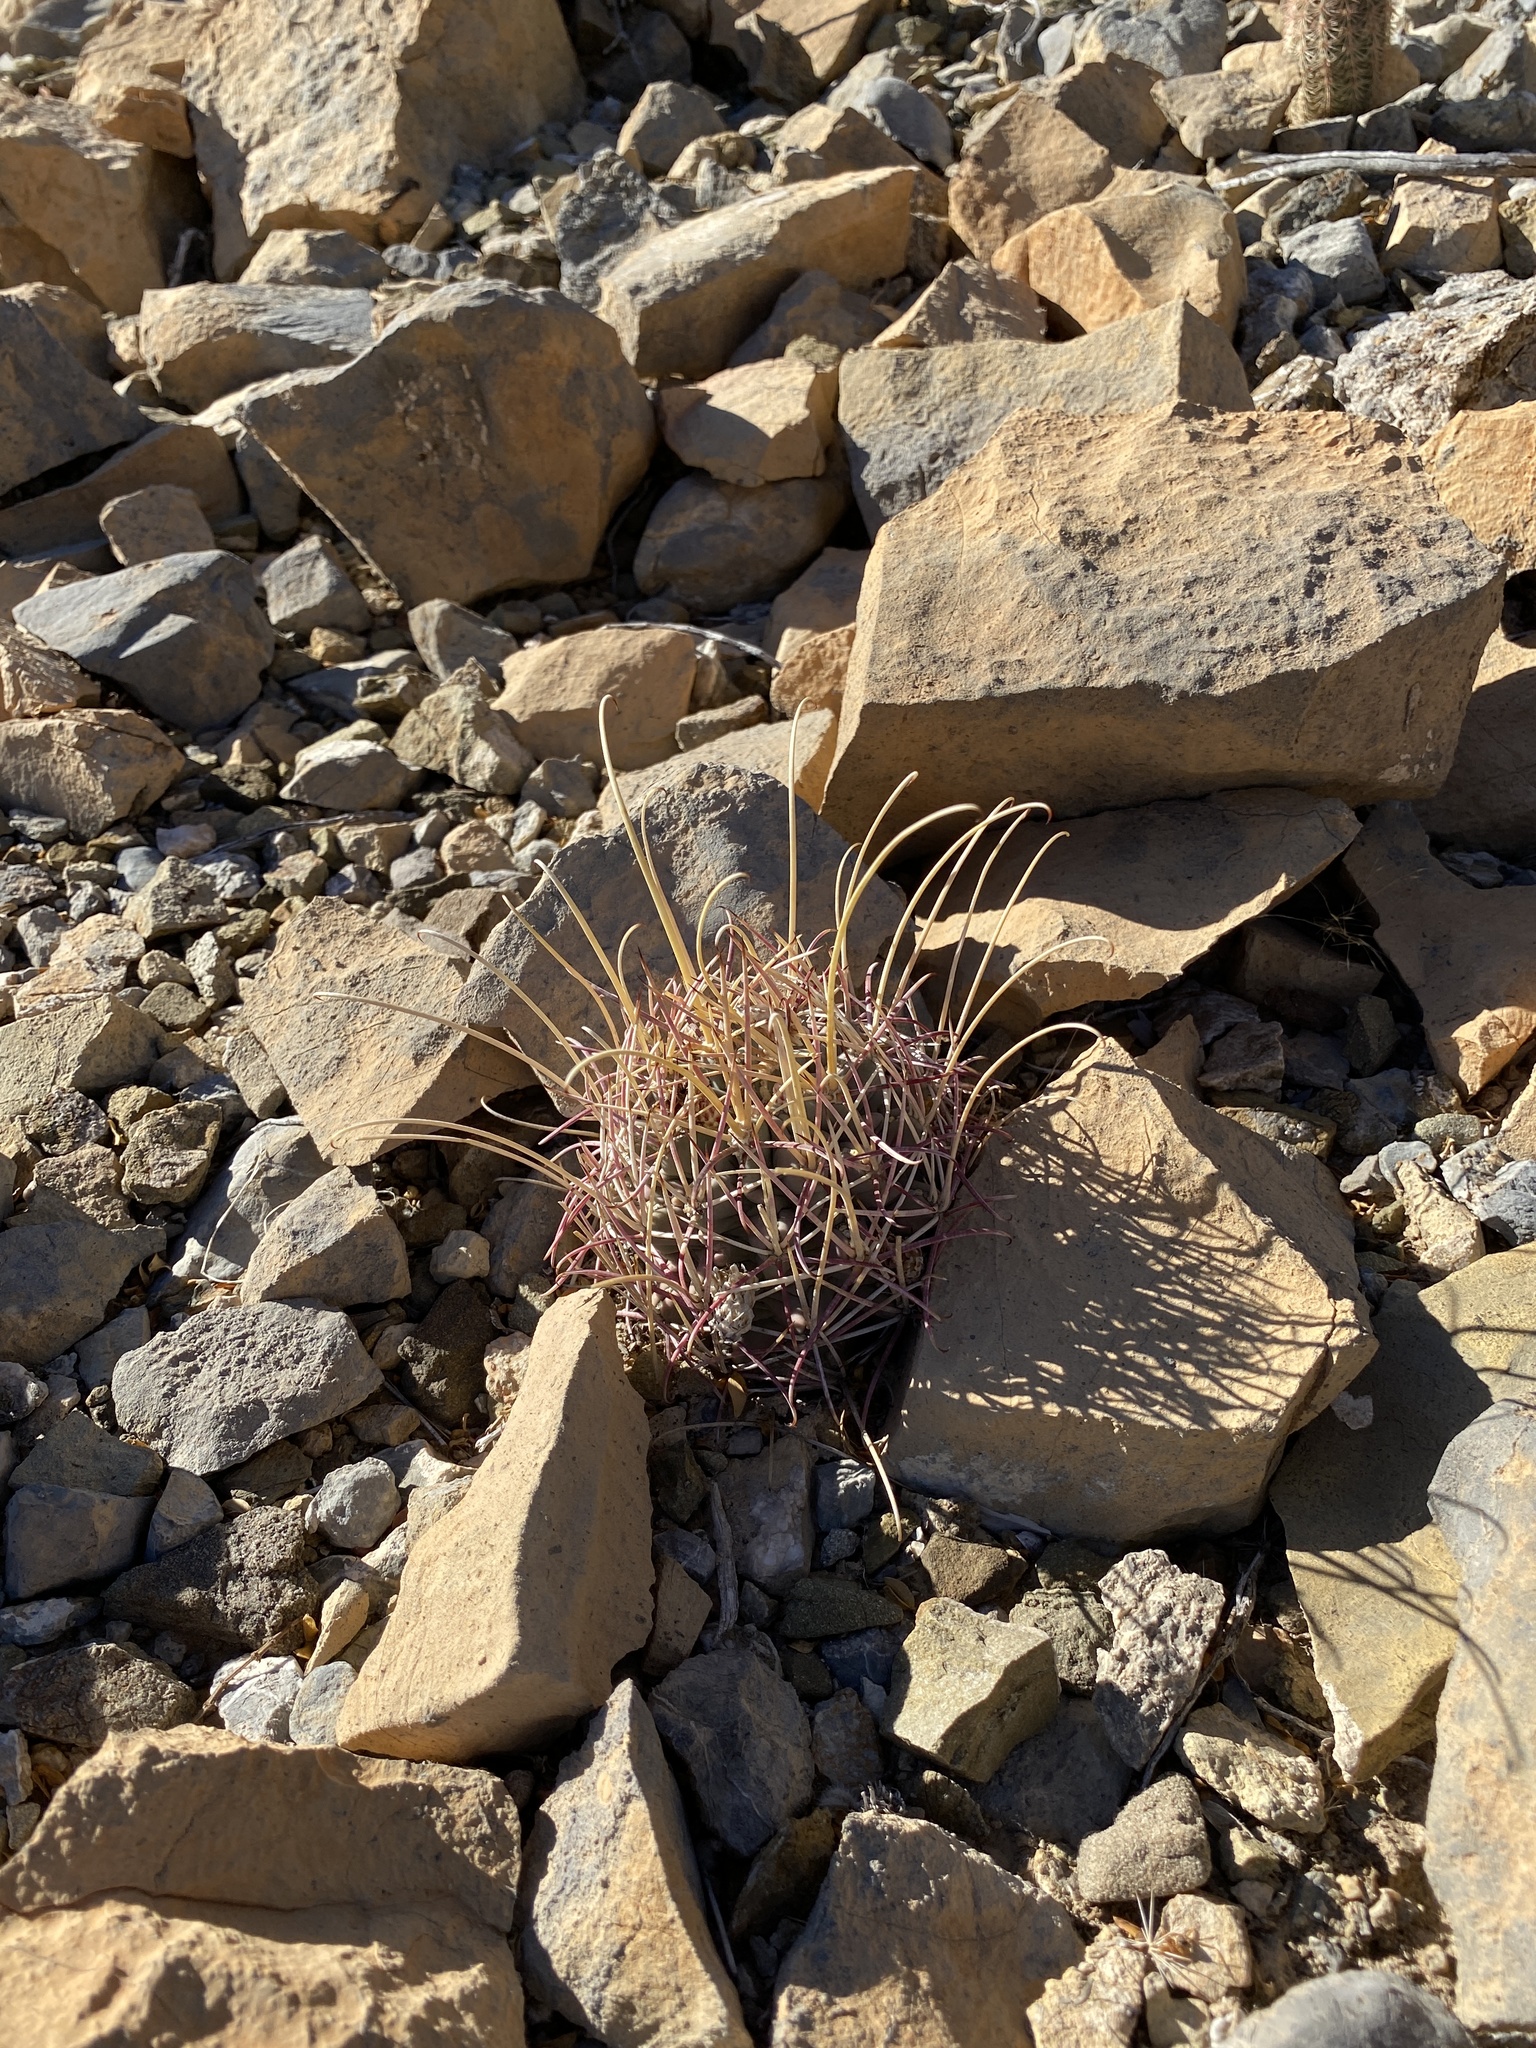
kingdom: Plantae
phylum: Tracheophyta
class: Magnoliopsida
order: Caryophyllales
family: Cactaceae
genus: Ferocactus
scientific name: Ferocactus uncinatus
